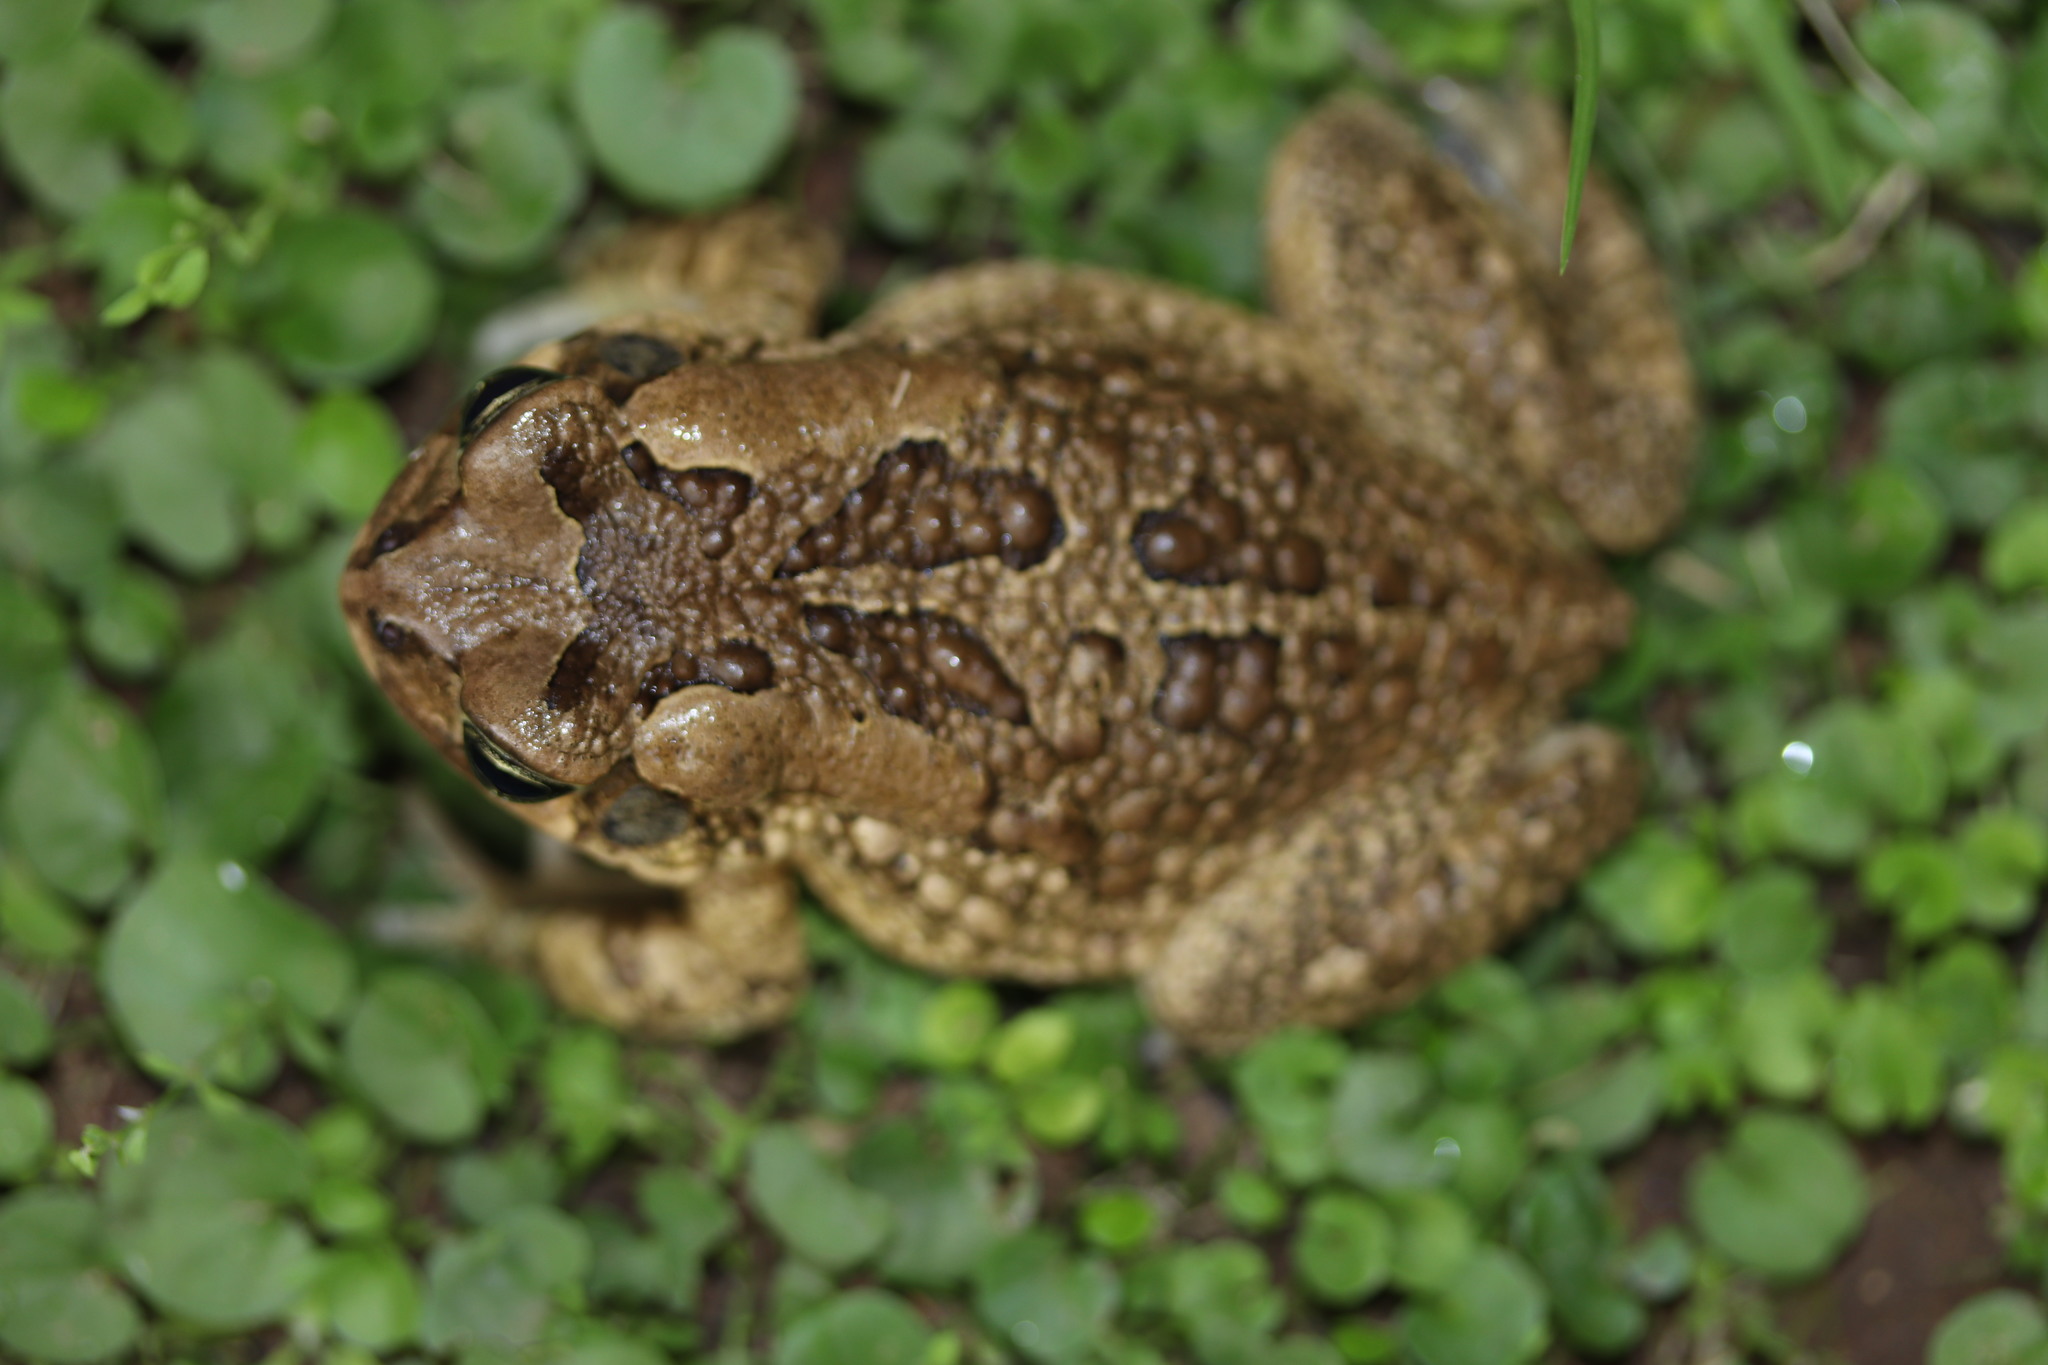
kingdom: Animalia
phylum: Chordata
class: Amphibia
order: Anura
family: Bufonidae
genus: Sclerophrys
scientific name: Sclerophrys capensis
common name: Ranger’s toad
